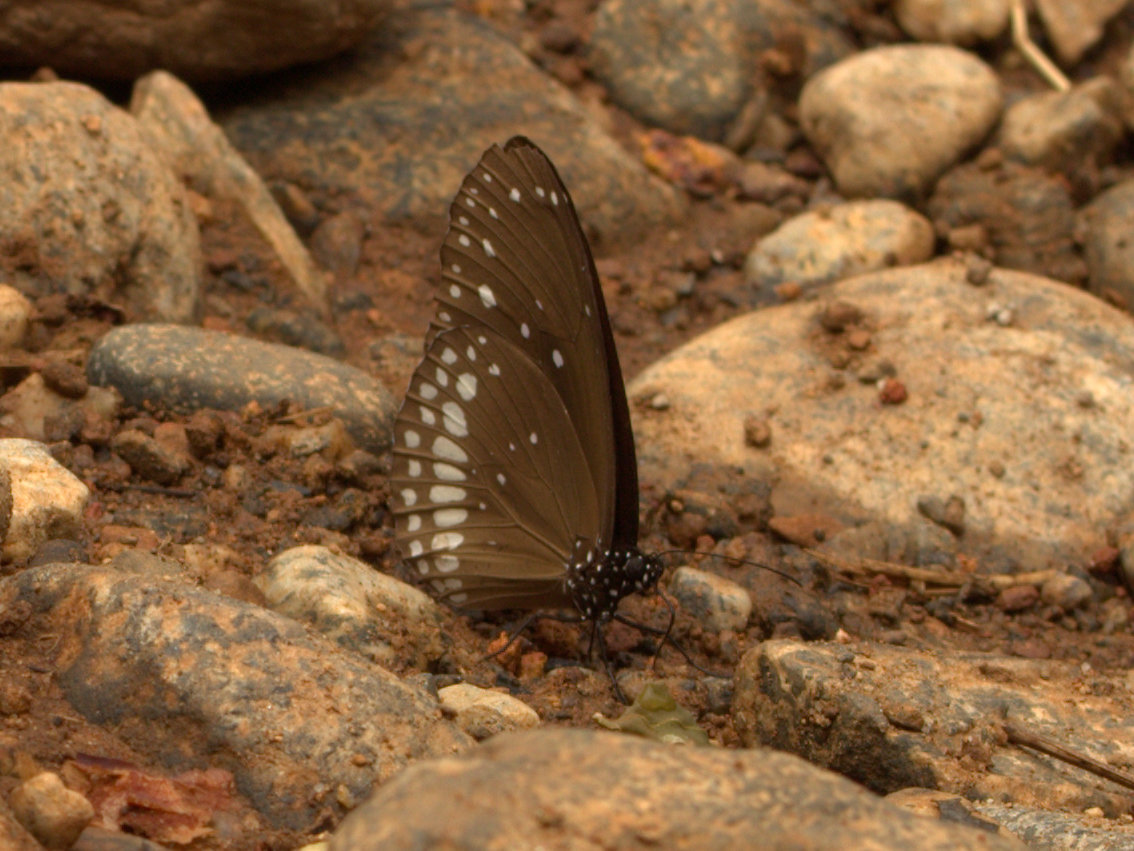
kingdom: Animalia
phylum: Arthropoda
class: Insecta
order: Lepidoptera
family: Nymphalidae
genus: Euploea
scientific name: Euploea core
